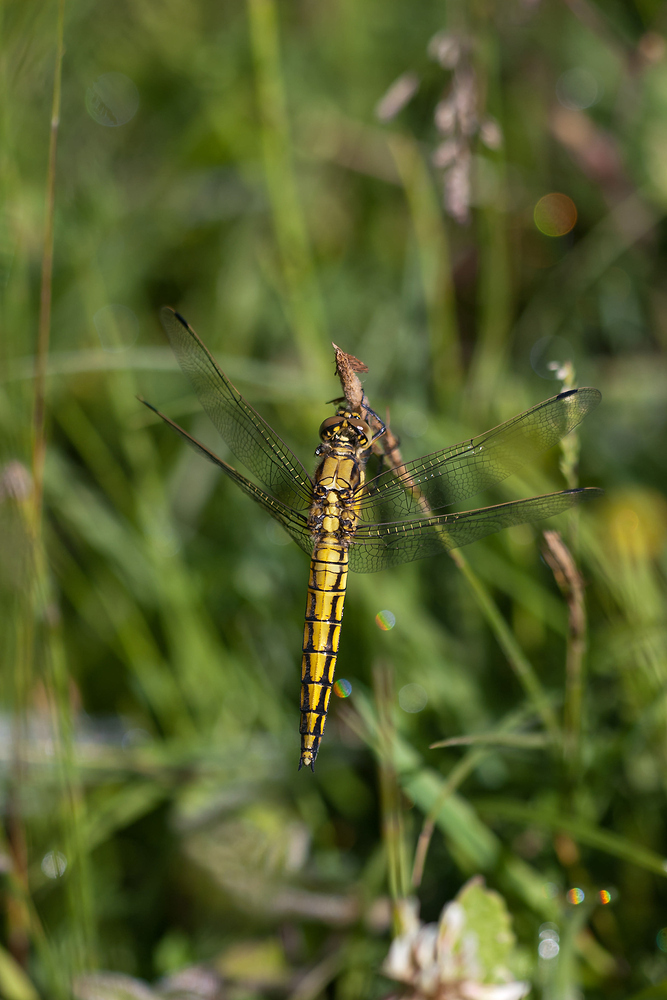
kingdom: Animalia
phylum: Arthropoda
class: Insecta
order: Odonata
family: Libellulidae
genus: Orthetrum
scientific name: Orthetrum cancellatum
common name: Black-tailed skimmer
